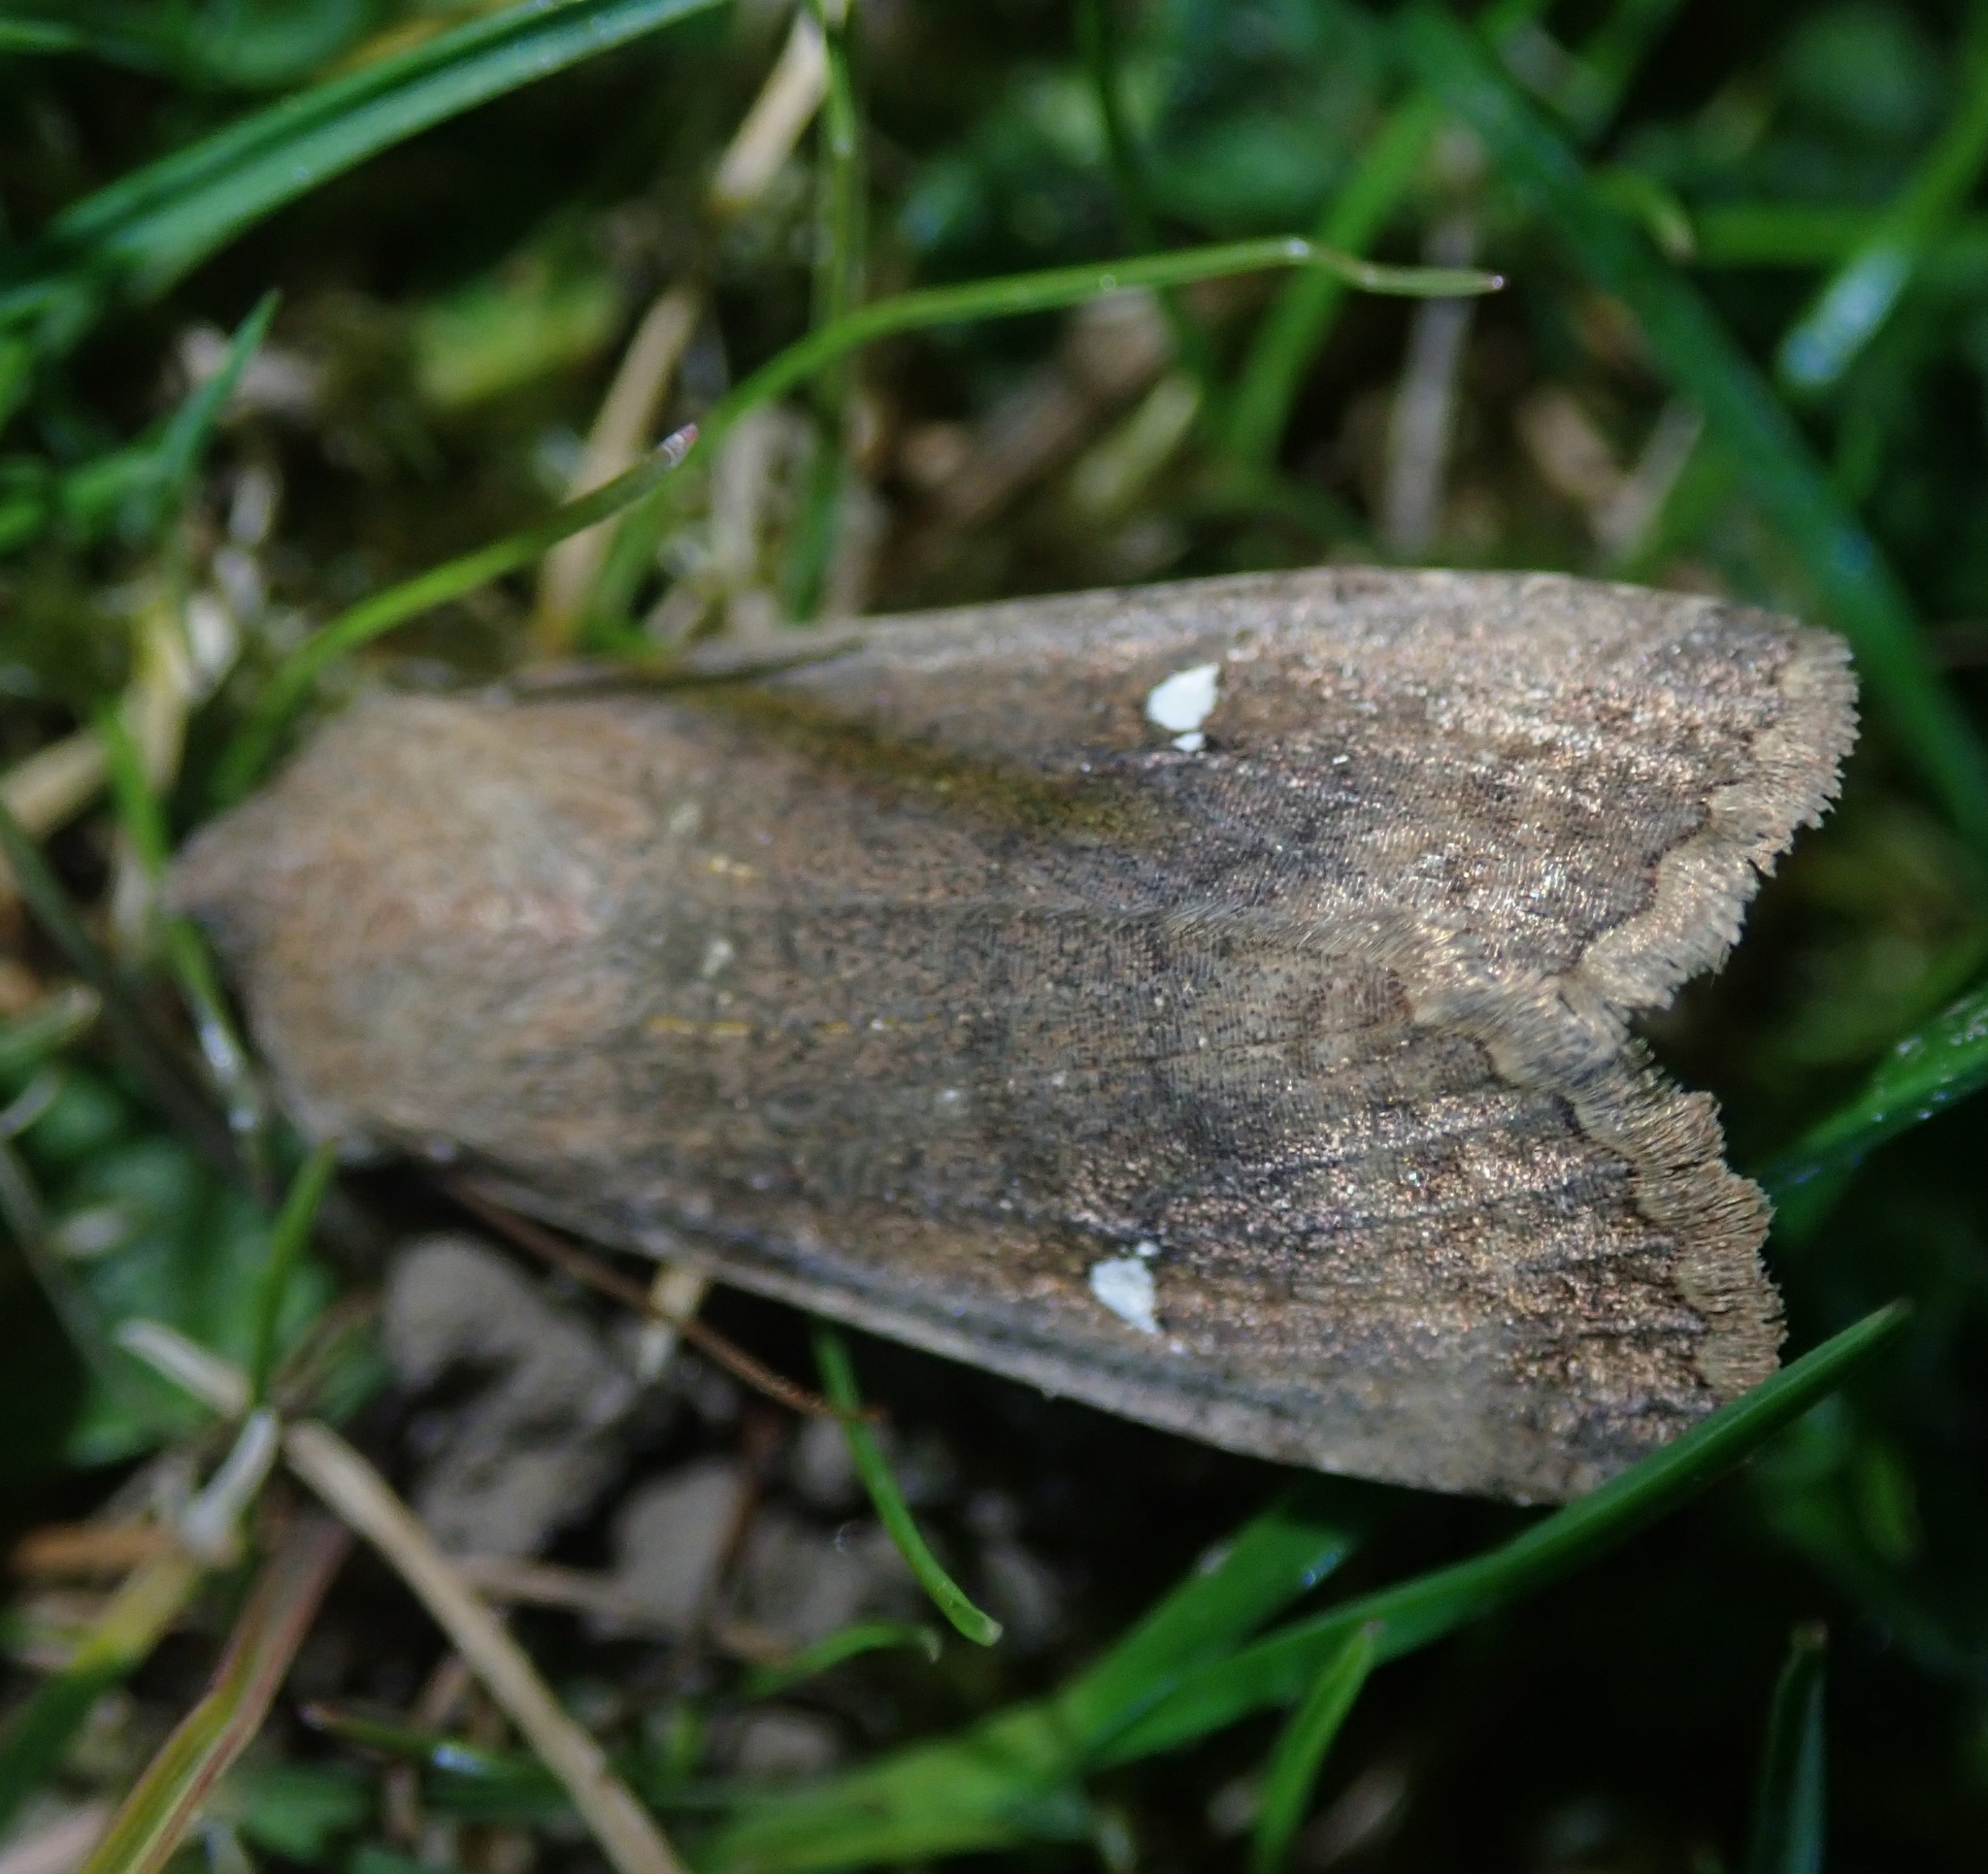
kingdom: Animalia
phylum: Arthropoda
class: Insecta
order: Lepidoptera
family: Noctuidae
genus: Eupsilia
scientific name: Eupsilia transversa
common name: Satellite
